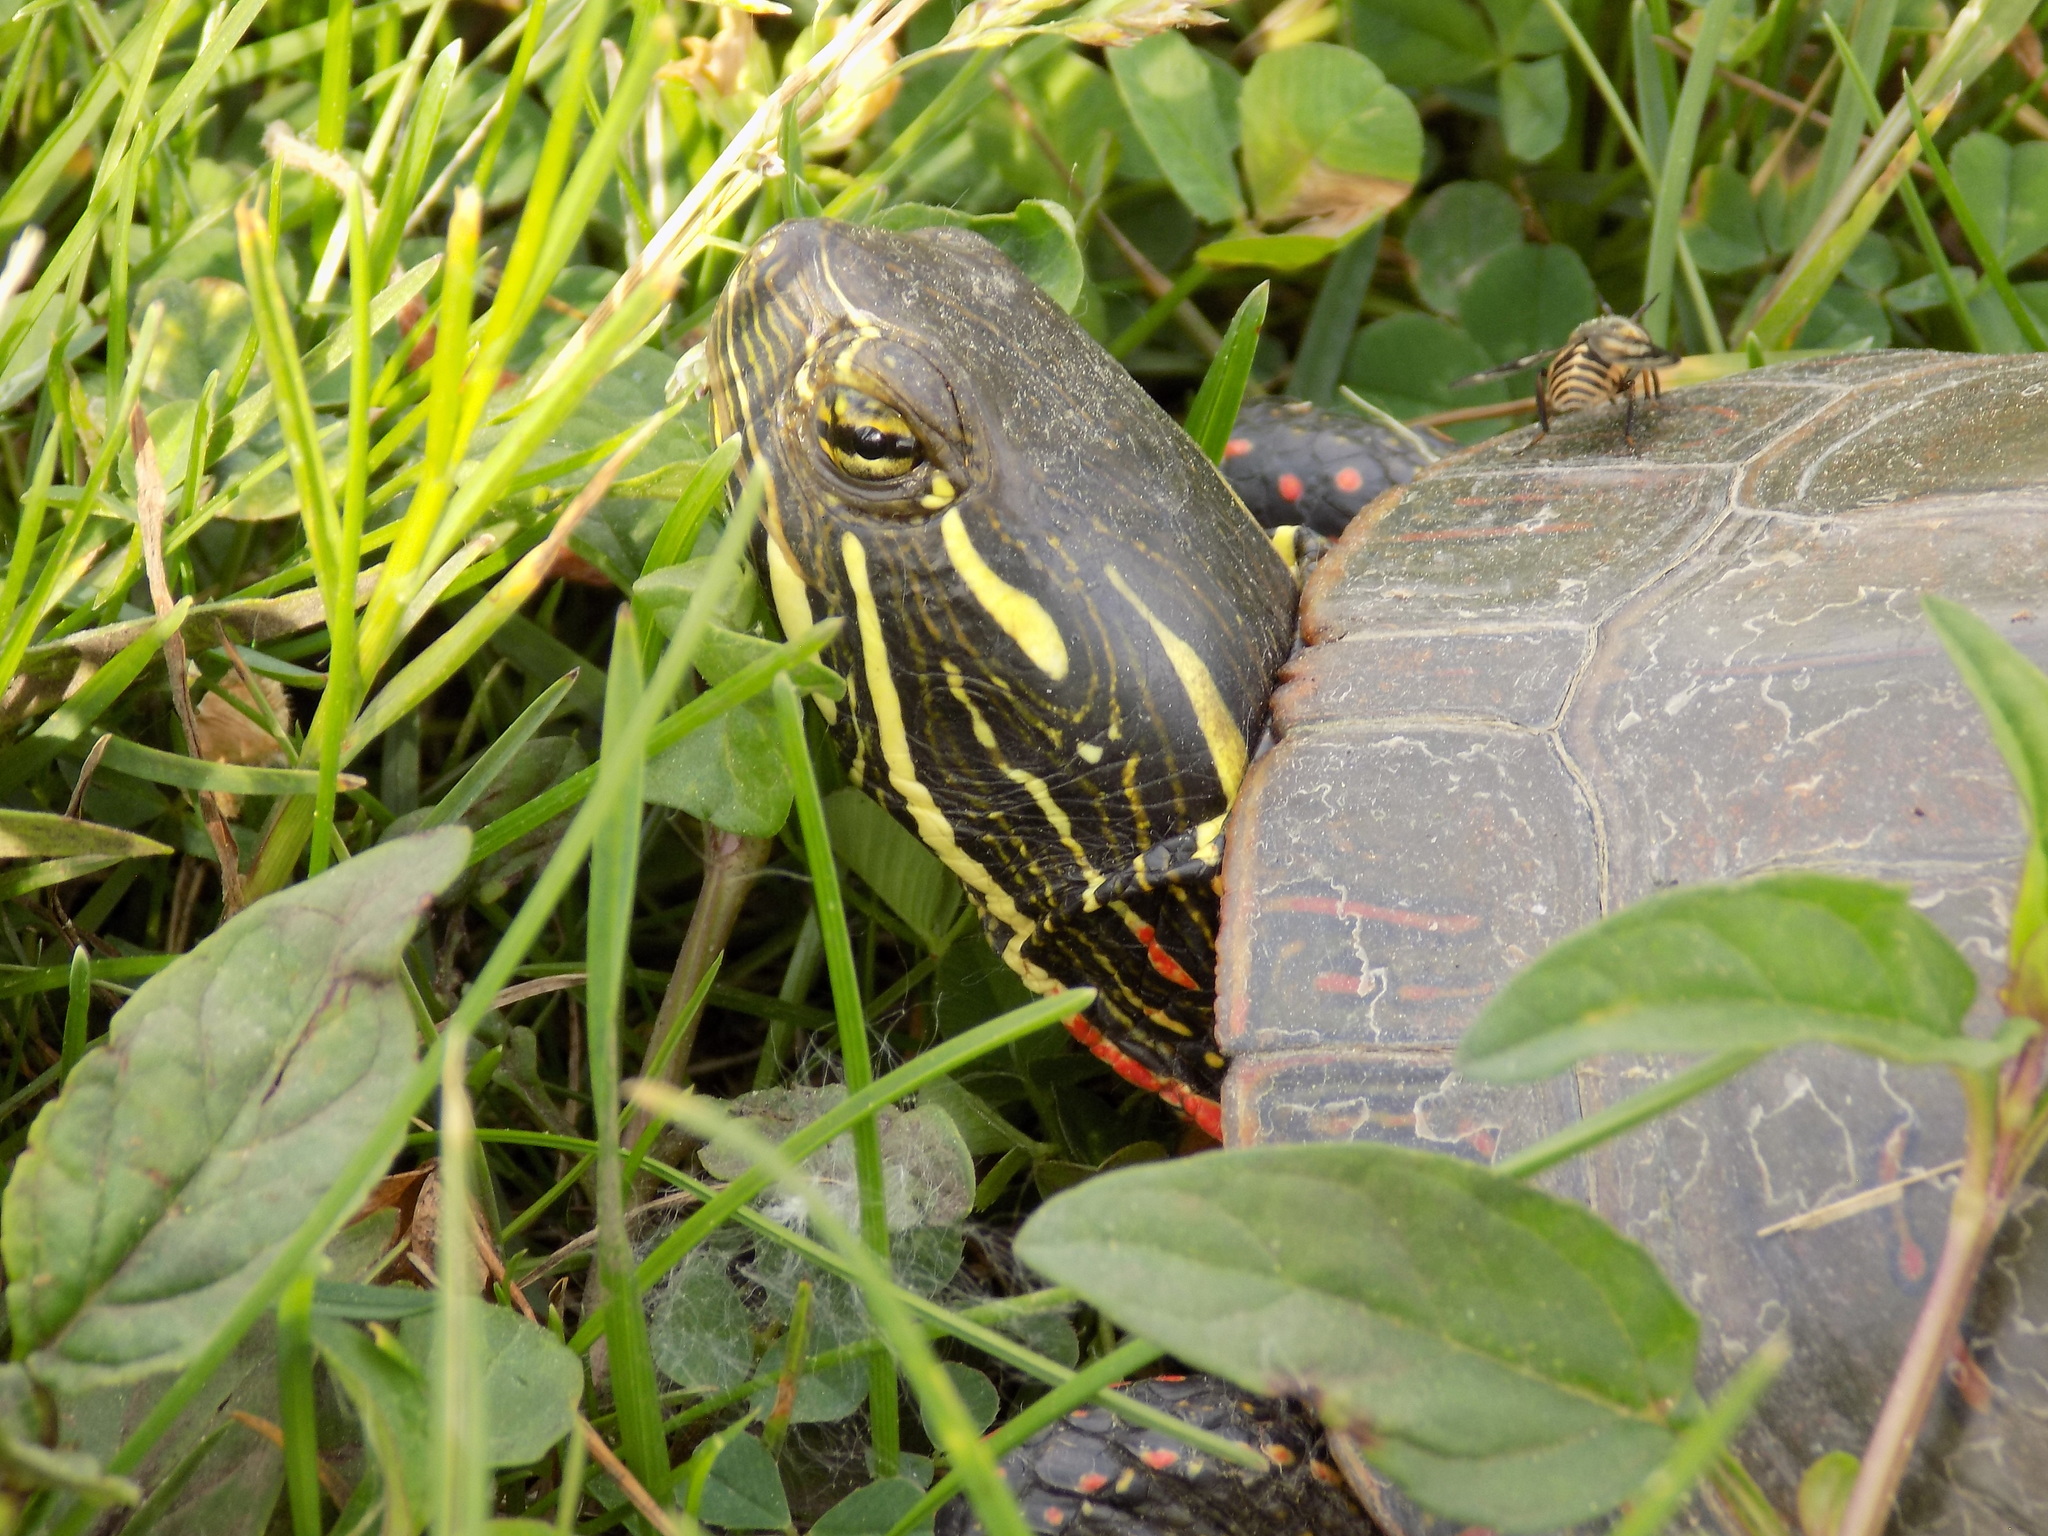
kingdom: Animalia
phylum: Chordata
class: Testudines
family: Emydidae
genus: Chrysemys
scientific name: Chrysemys picta
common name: Painted turtle
